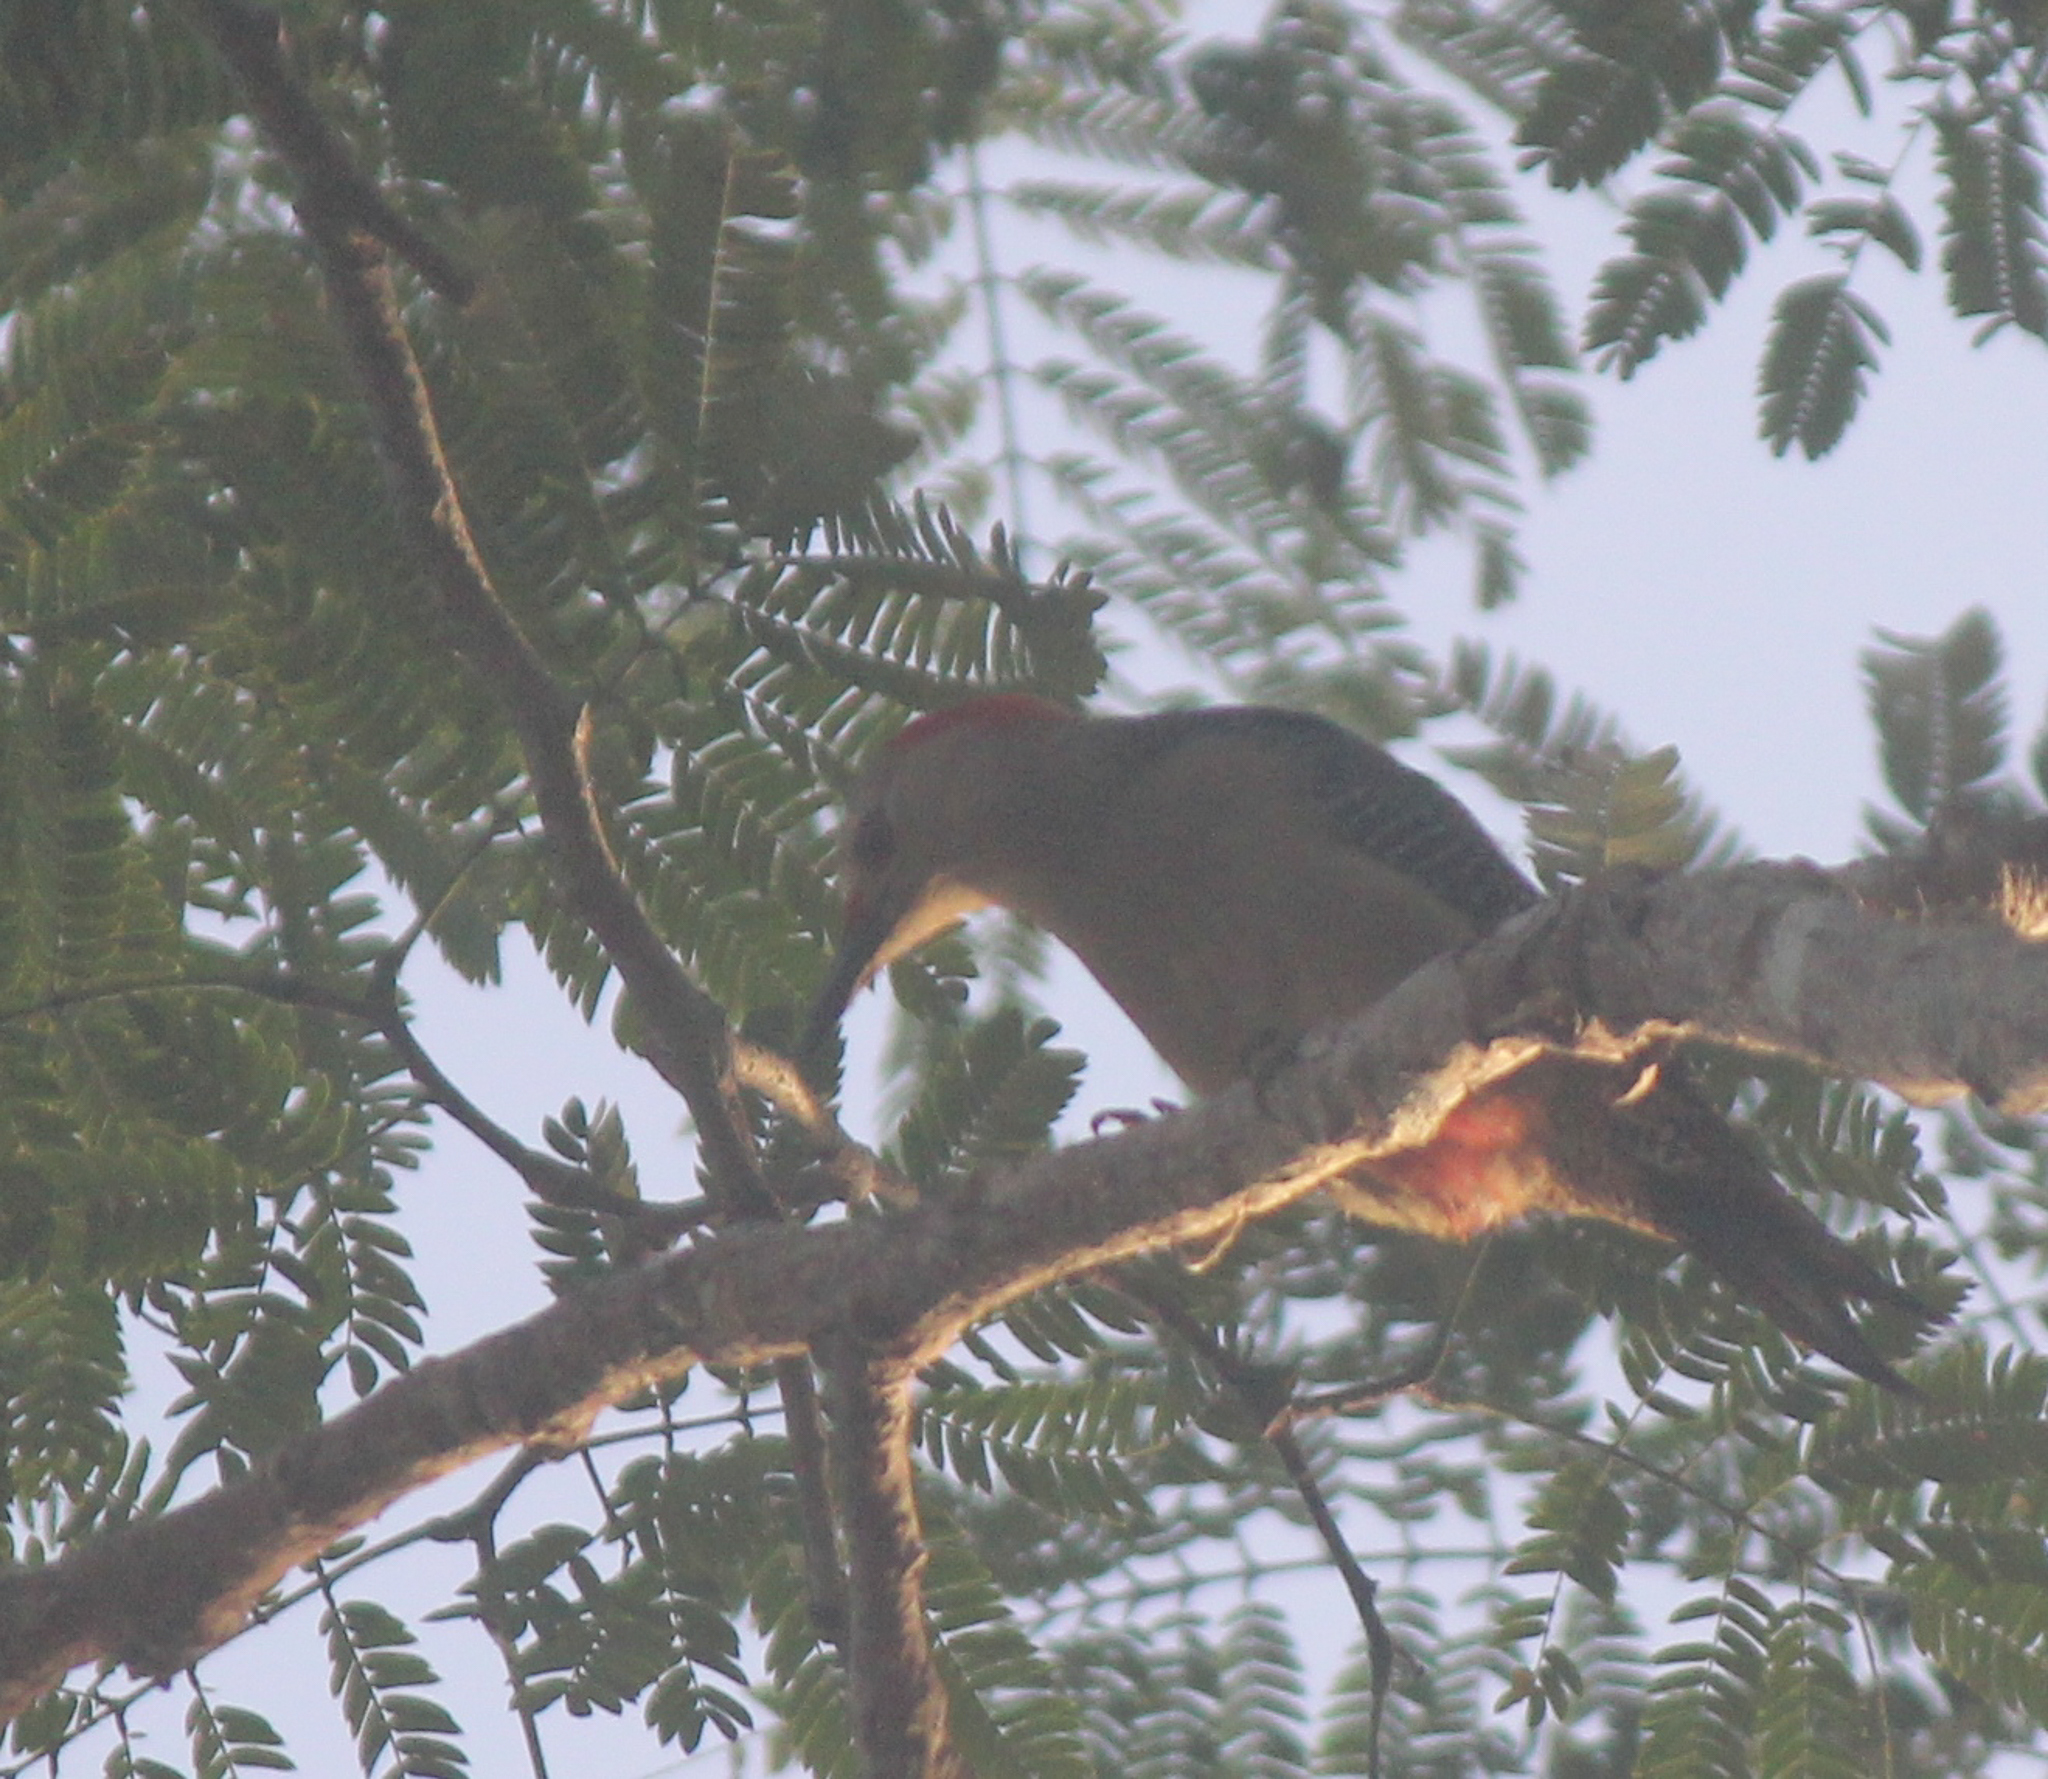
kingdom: Animalia
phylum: Chordata
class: Aves
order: Piciformes
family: Picidae
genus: Melanerpes
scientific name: Melanerpes aurifrons
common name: Golden-fronted woodpecker
